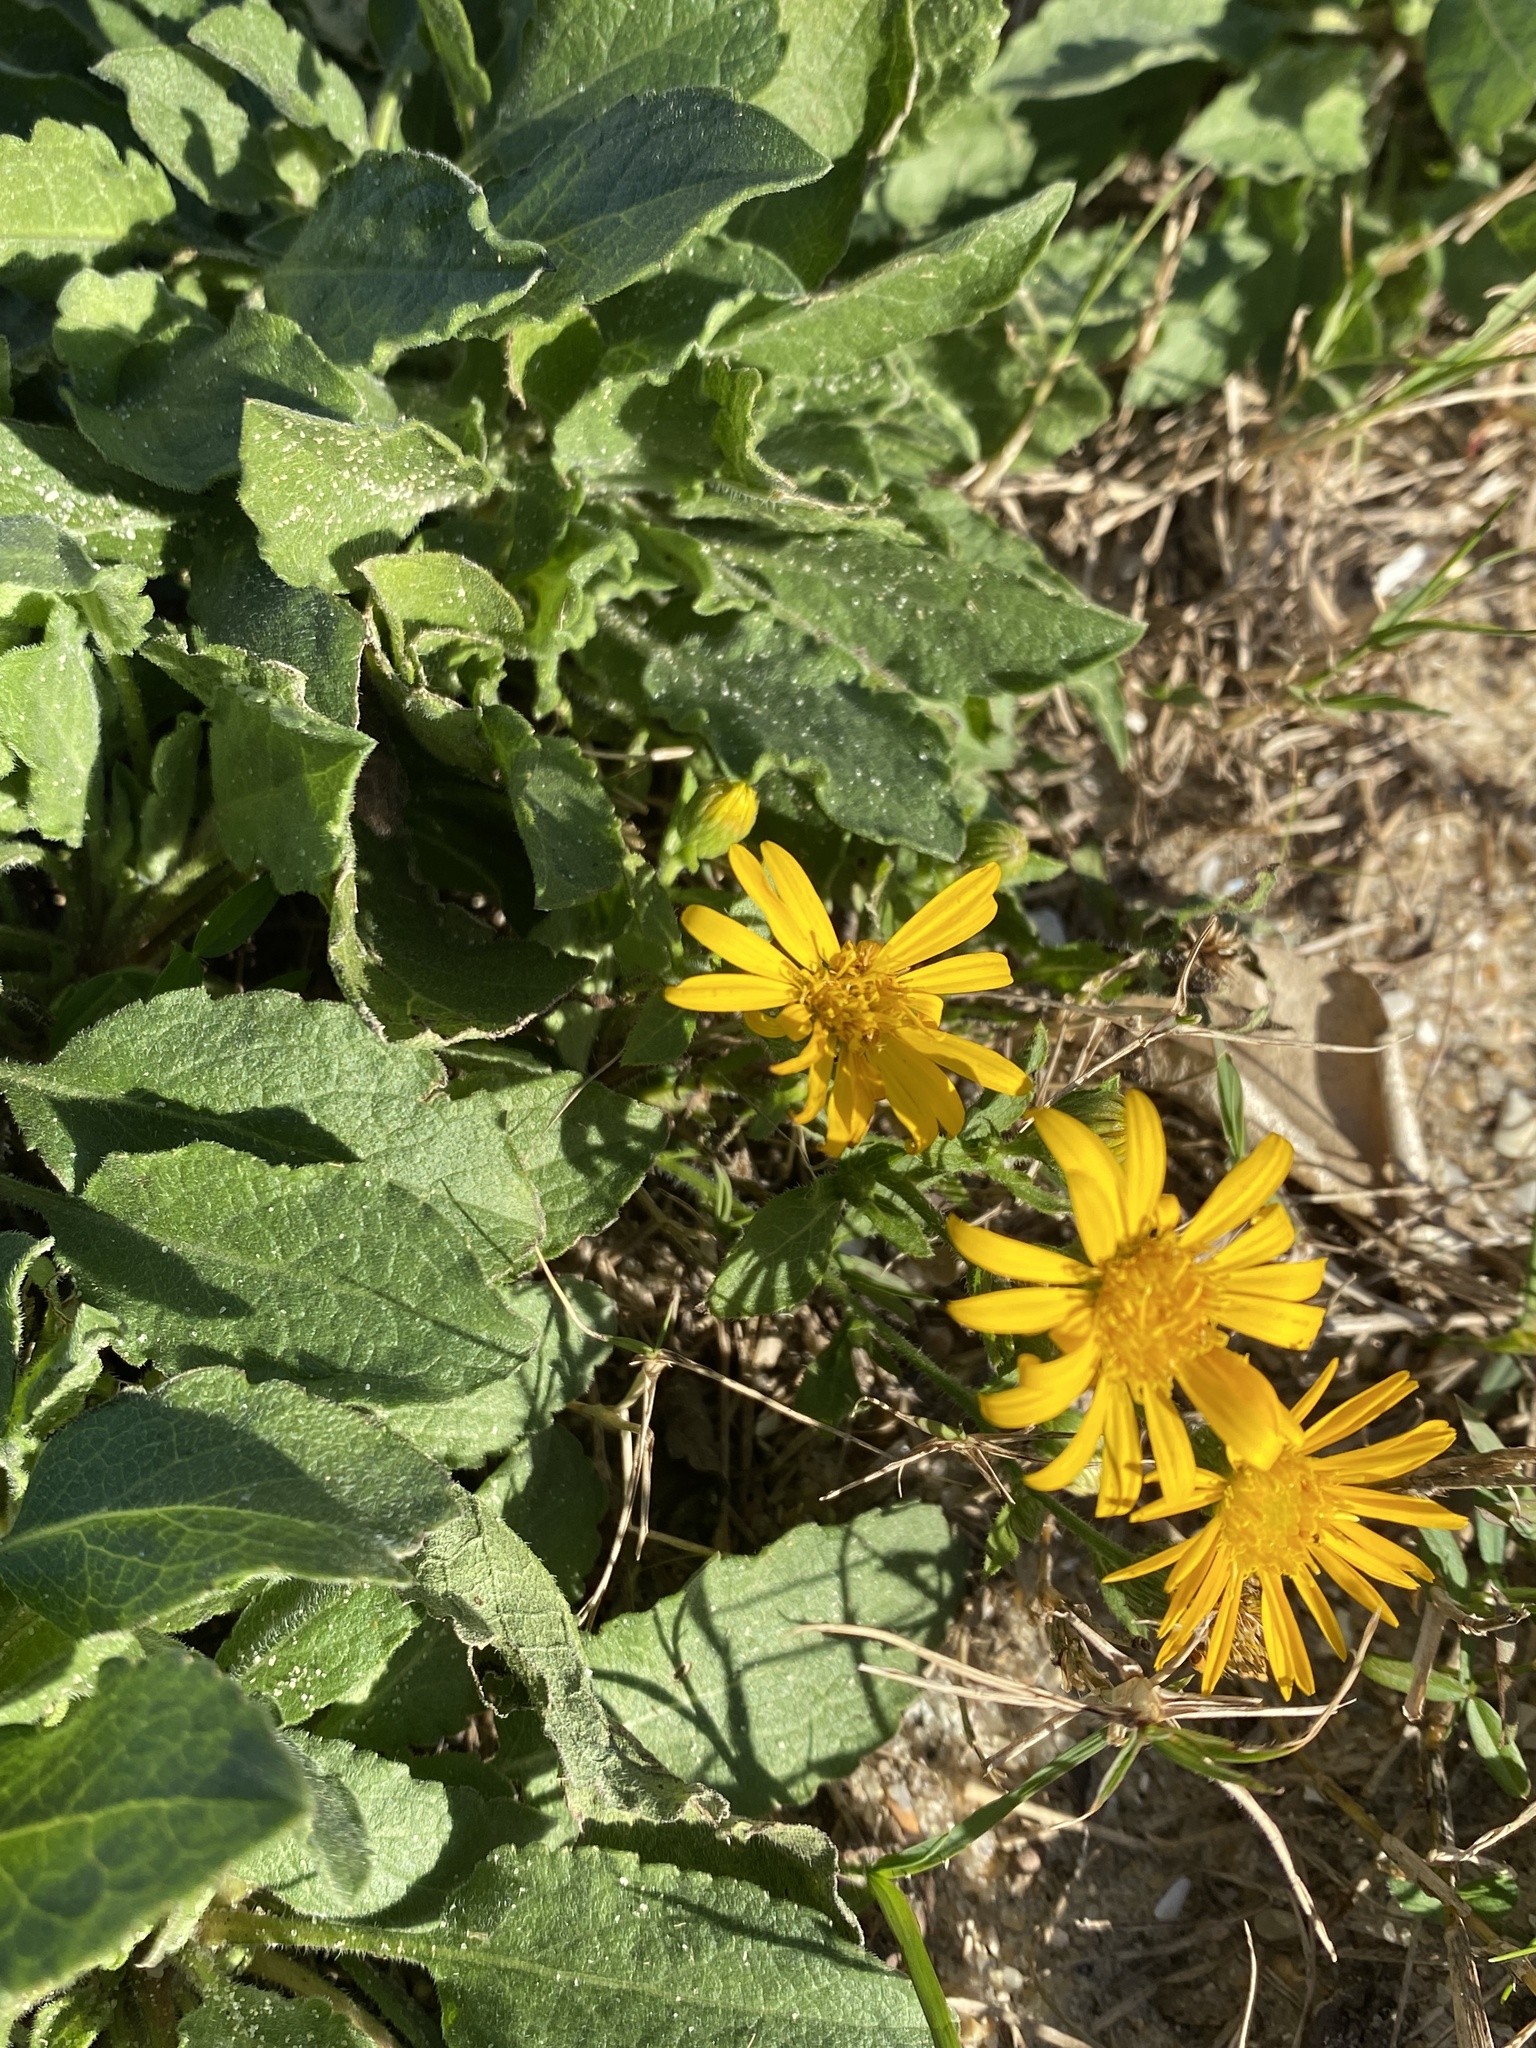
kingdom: Plantae
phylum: Tracheophyta
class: Magnoliopsida
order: Asterales
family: Asteraceae
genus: Heterotheca
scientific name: Heterotheca subaxillaris
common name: Camphorweed
